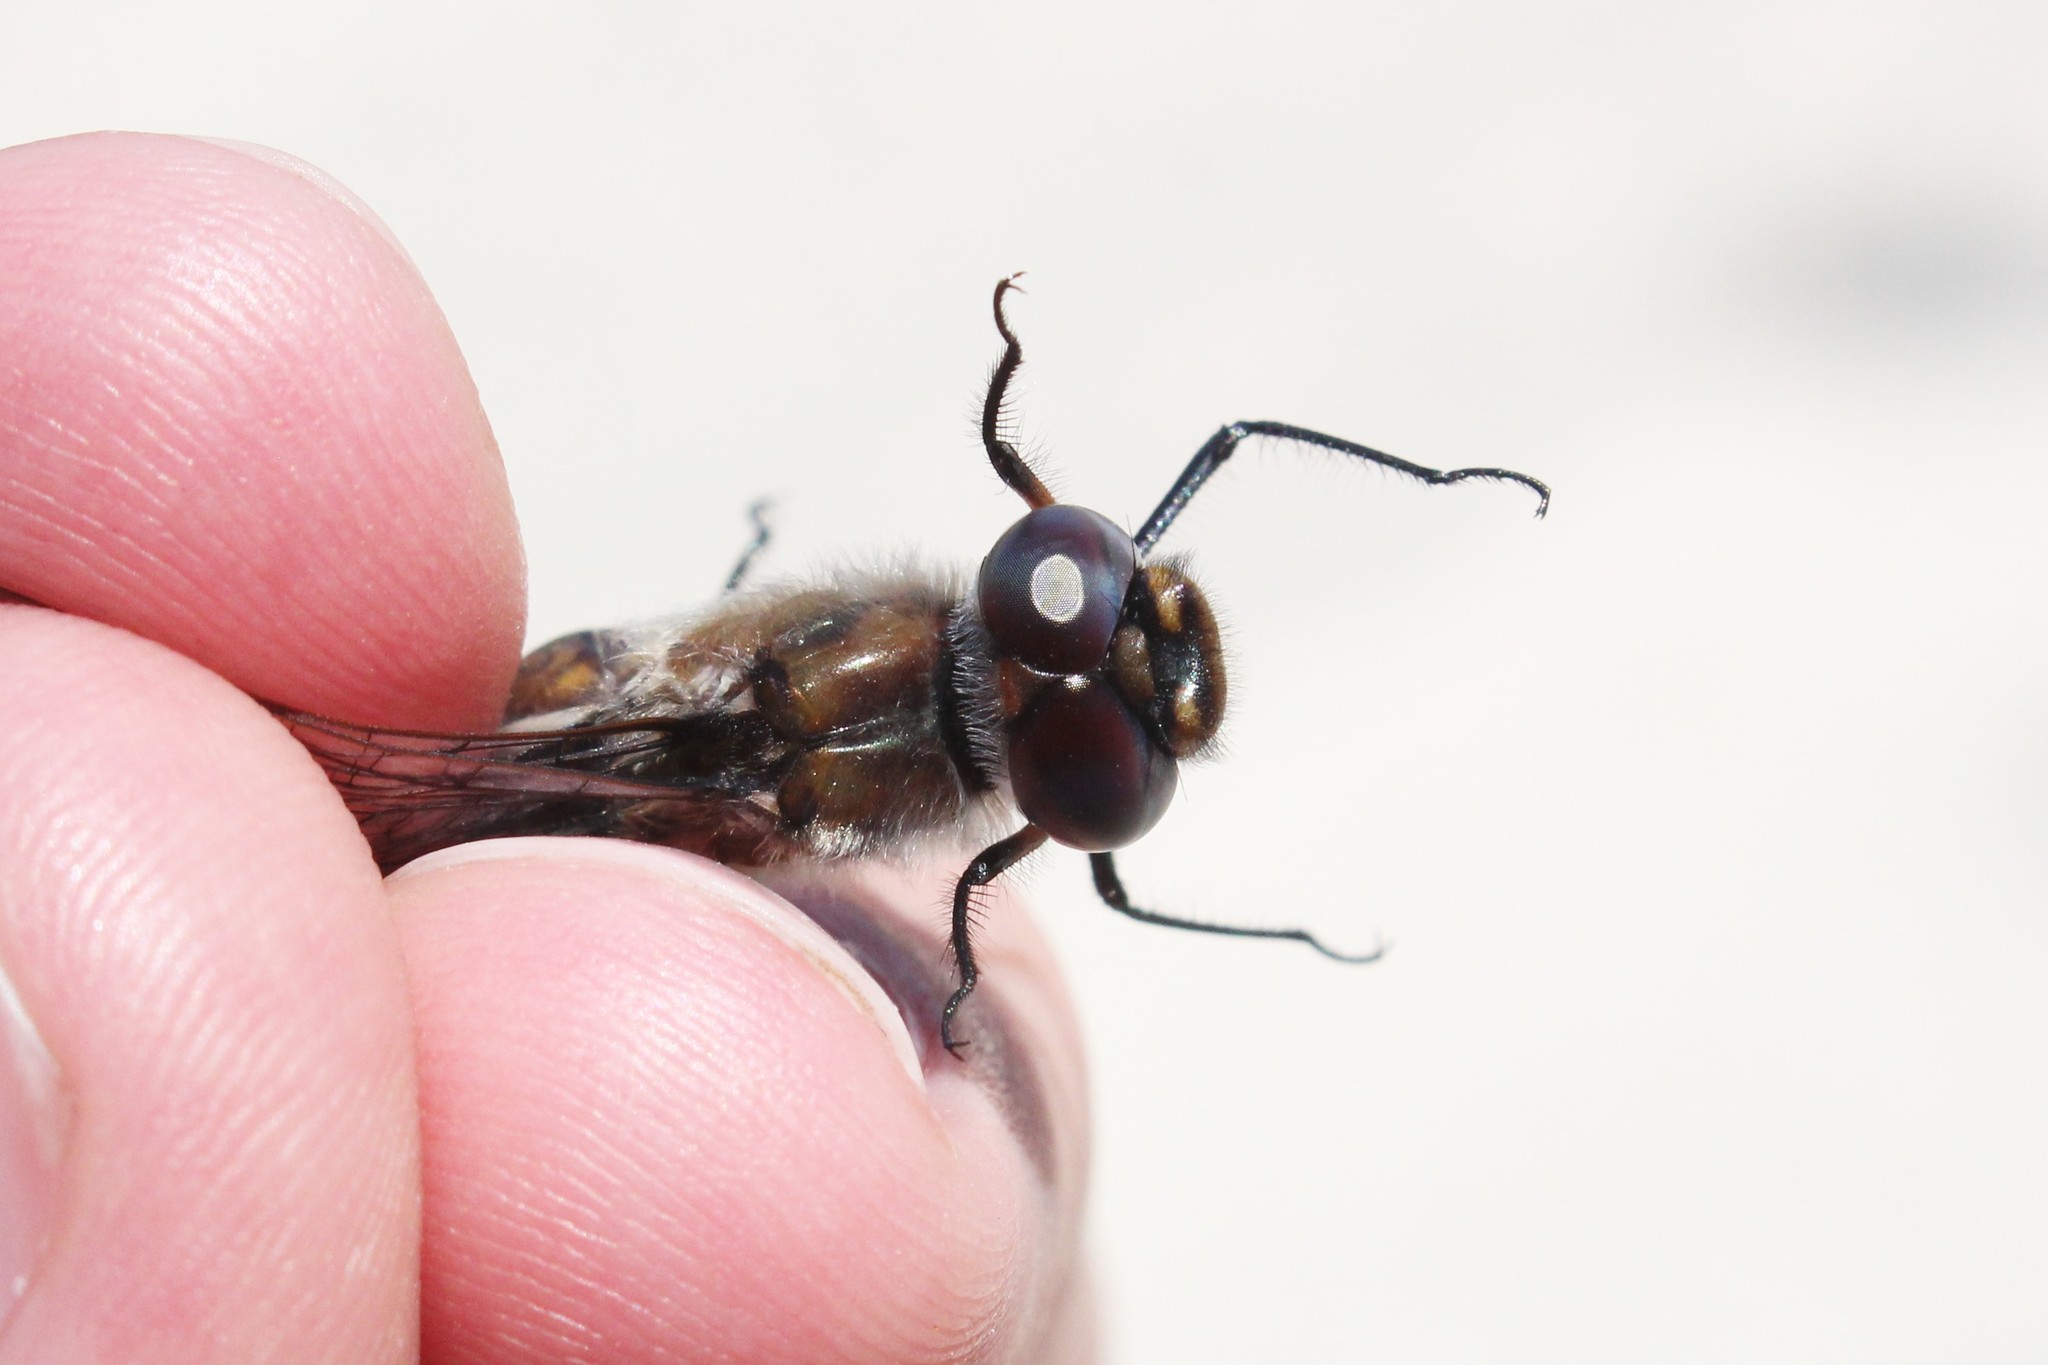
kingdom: Animalia
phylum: Arthropoda
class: Insecta
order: Odonata
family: Corduliidae
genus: Epitheca
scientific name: Epitheca cynosura
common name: Common baskettail
